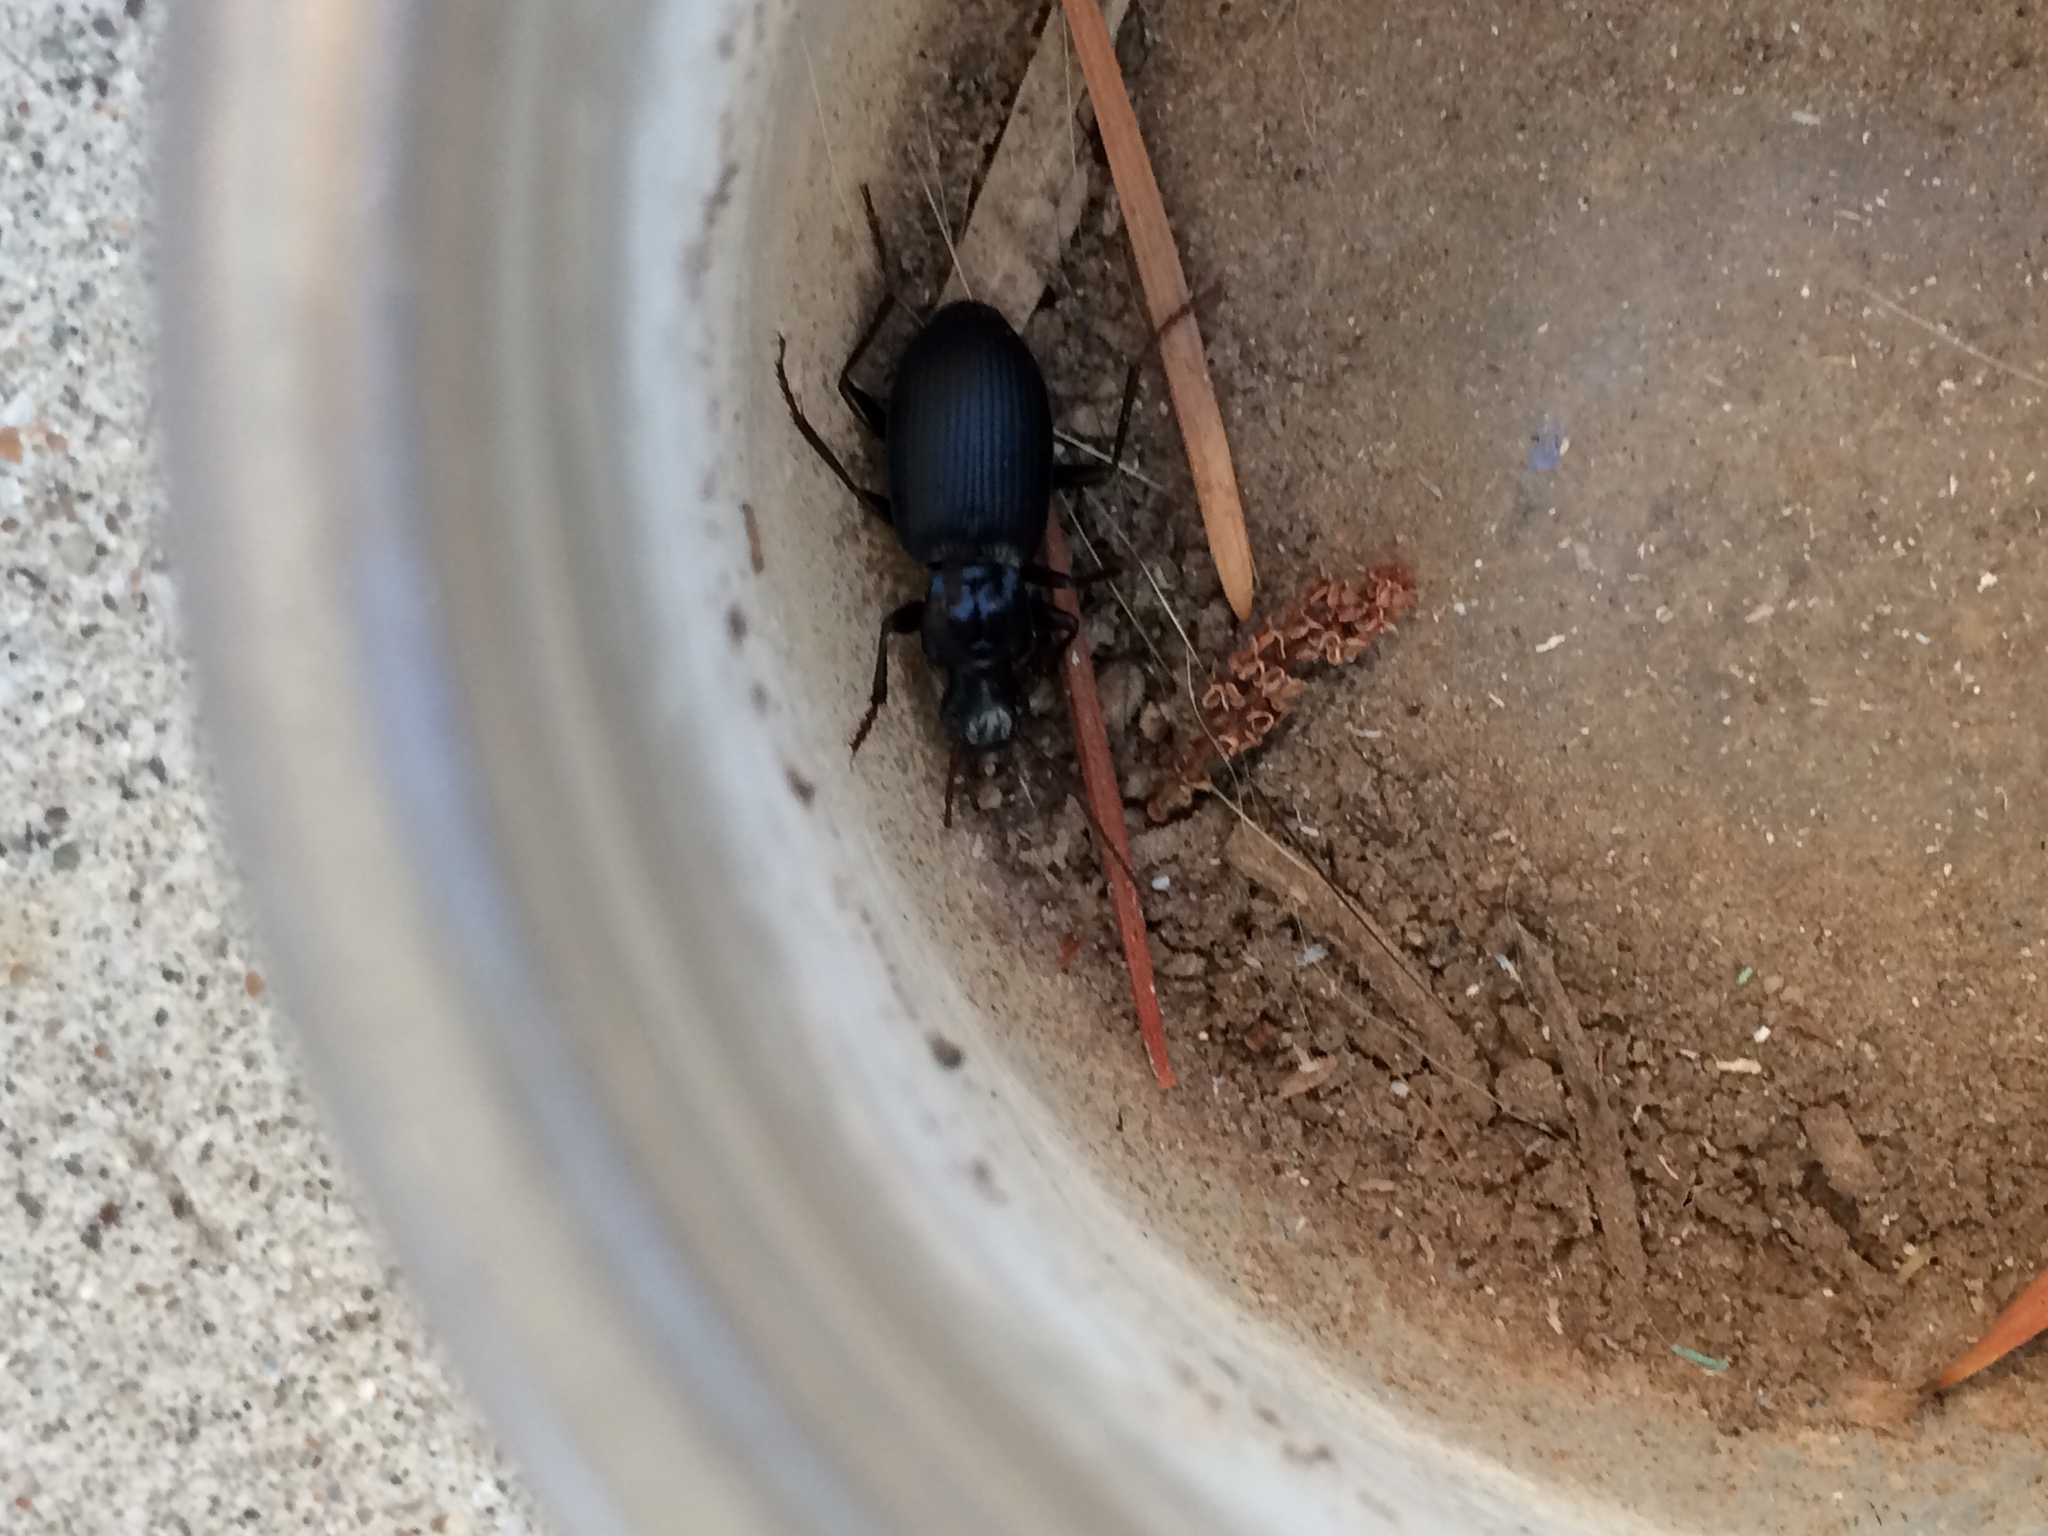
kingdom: Animalia
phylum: Arthropoda
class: Insecta
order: Coleoptera
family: Carabidae
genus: Laemostenus
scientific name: Laemostenus complanatus
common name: Cosmopolitan ground beetle
